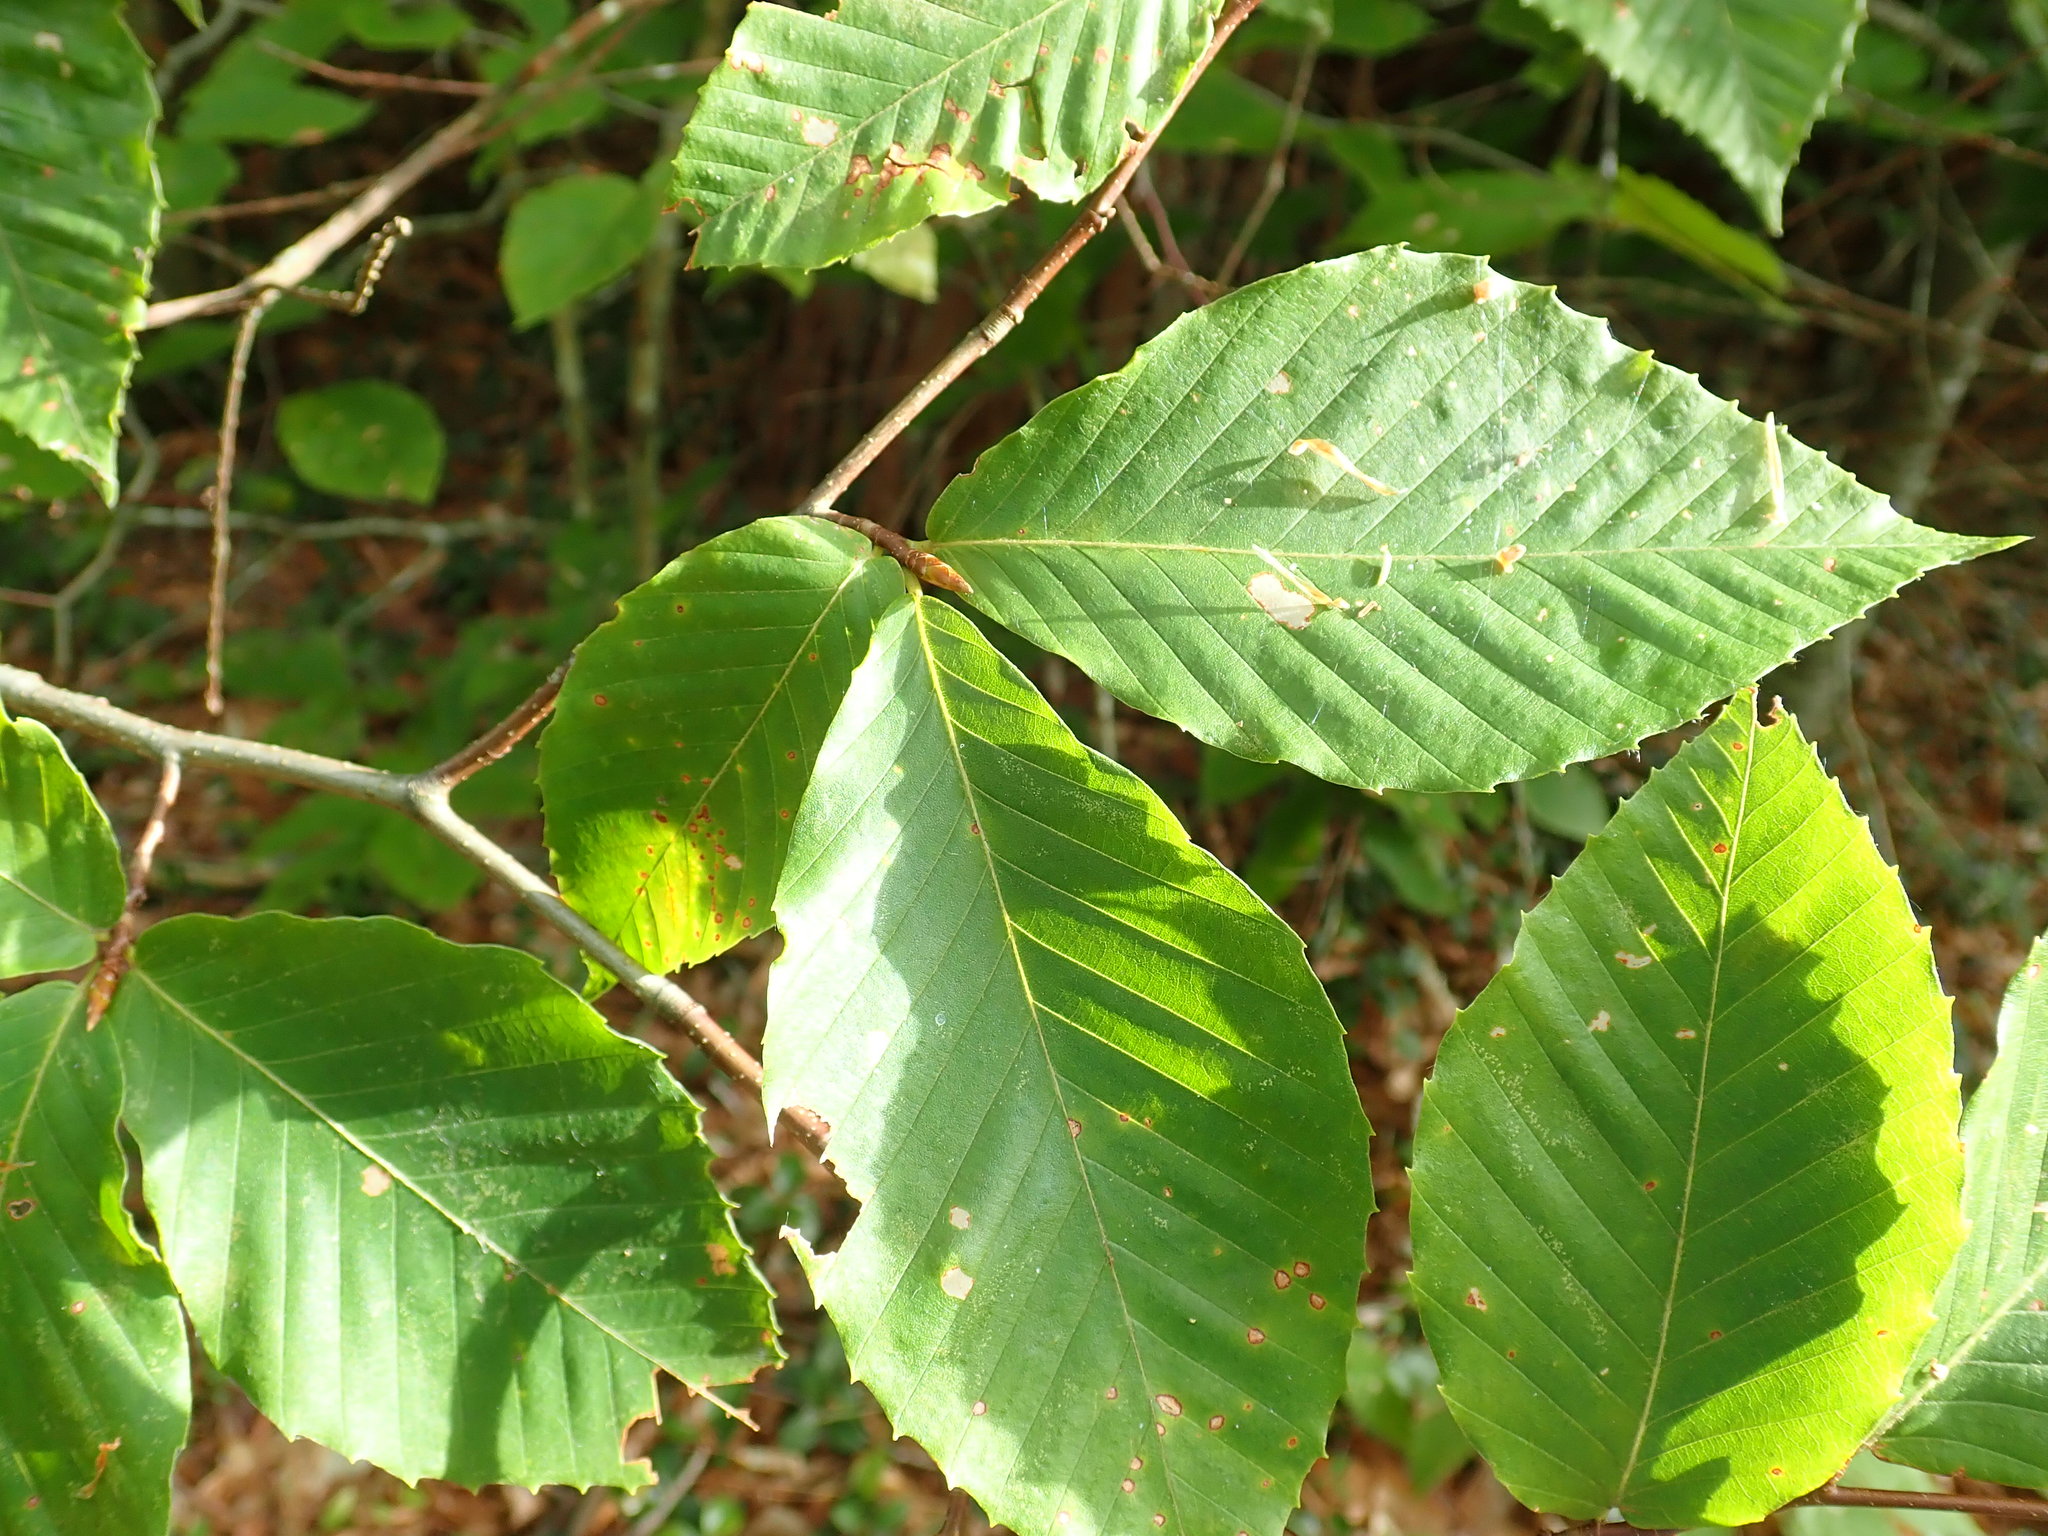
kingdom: Plantae
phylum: Tracheophyta
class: Magnoliopsida
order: Fagales
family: Fagaceae
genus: Fagus
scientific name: Fagus grandifolia
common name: American beech
